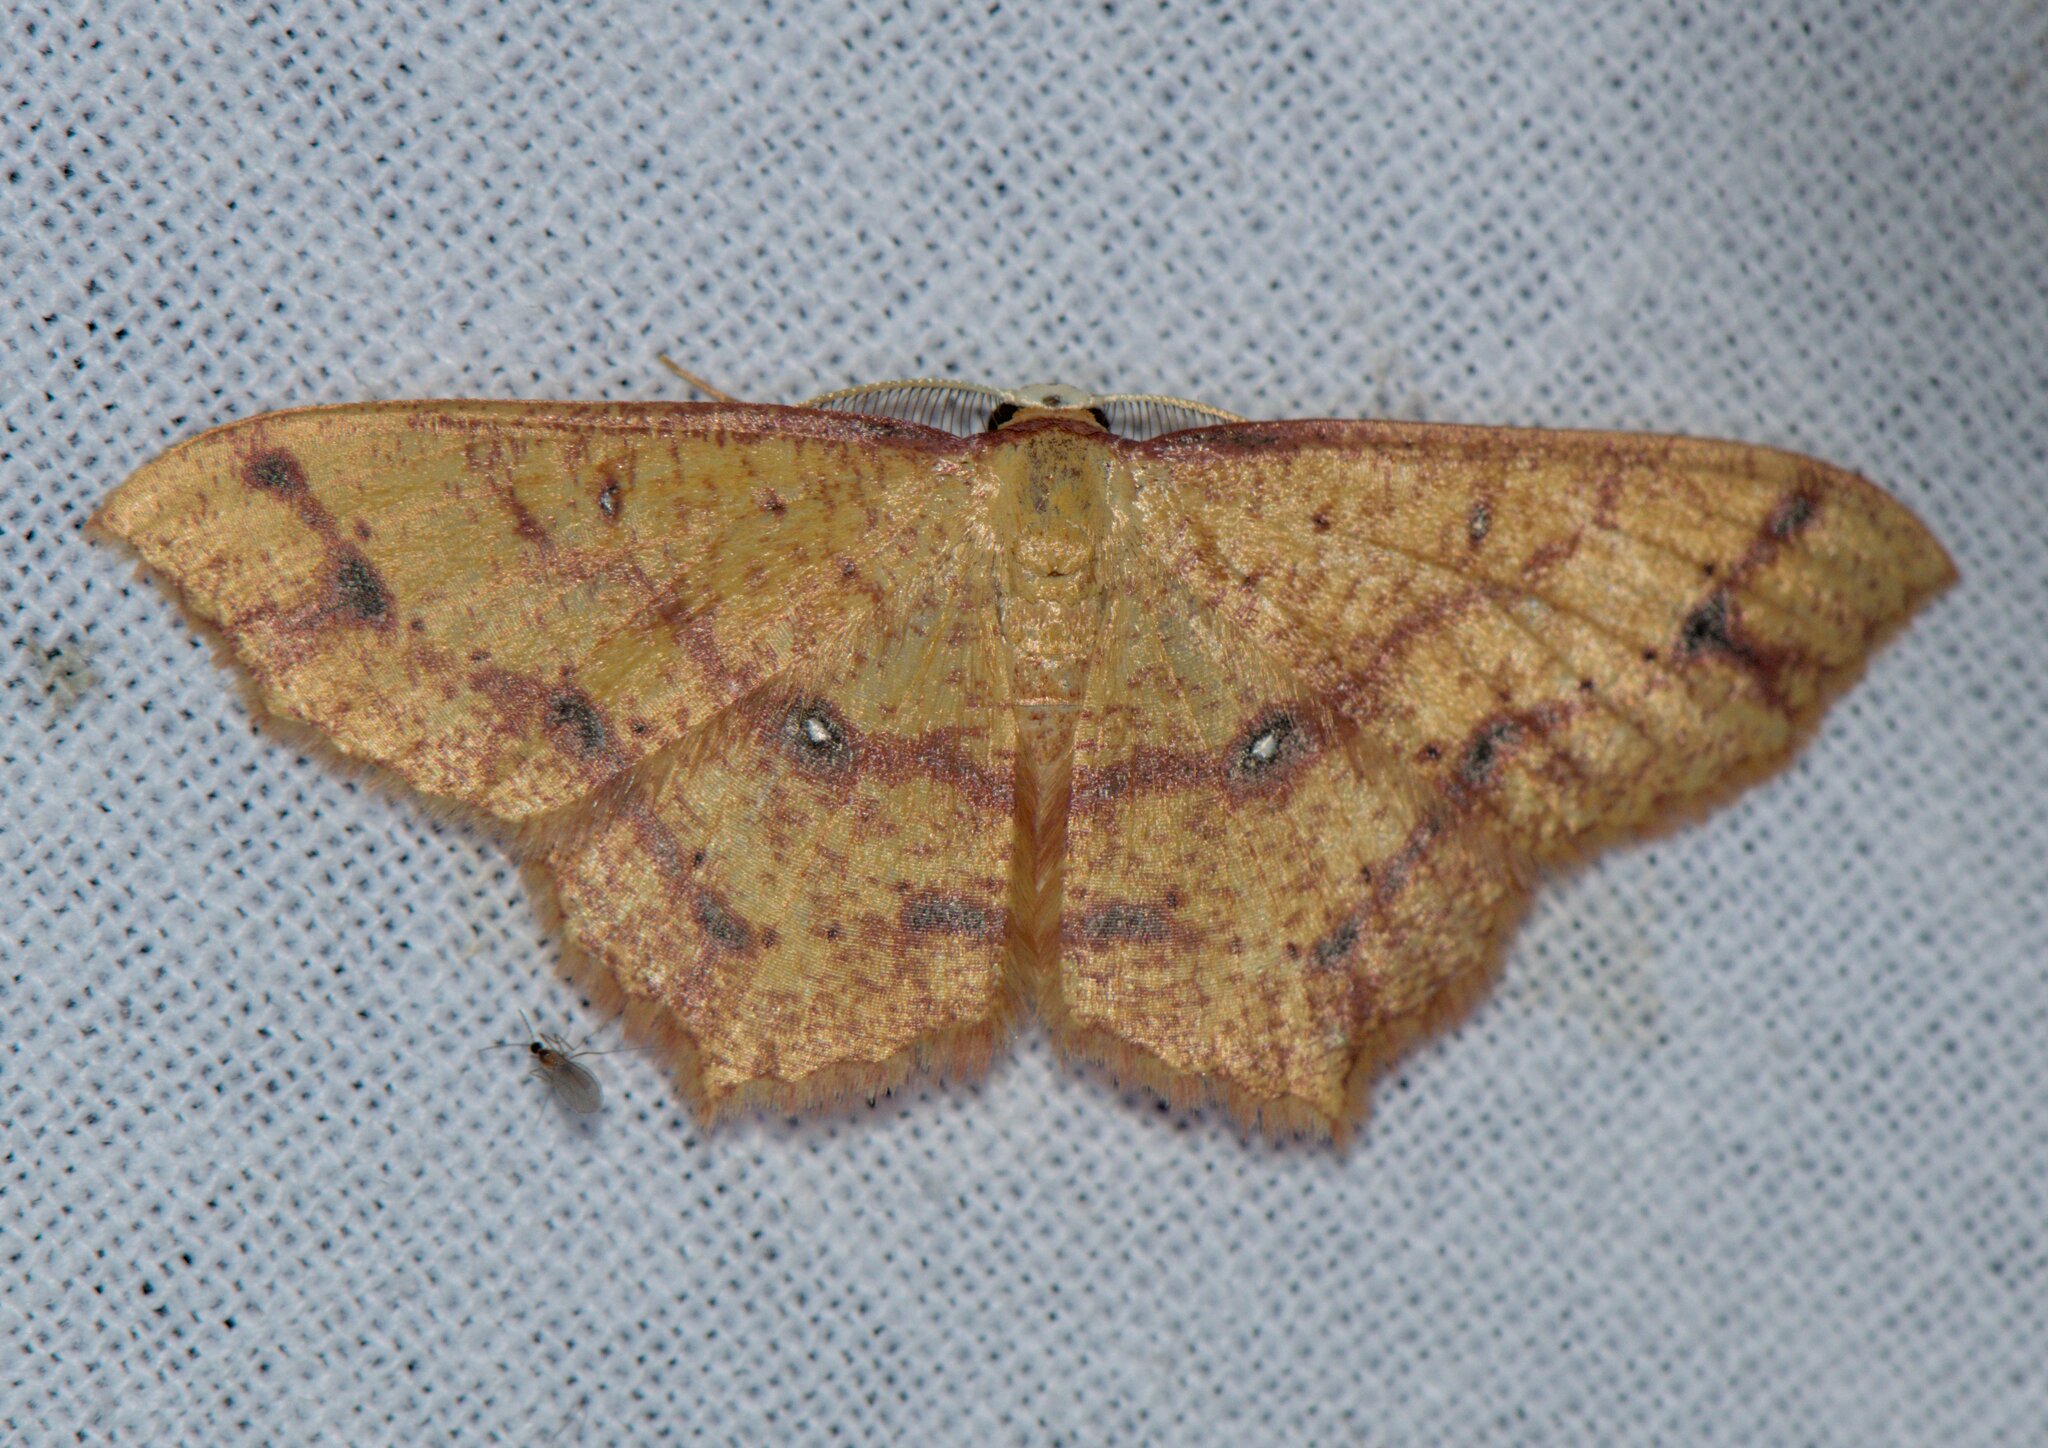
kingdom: Animalia
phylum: Arthropoda
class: Insecta
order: Lepidoptera
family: Geometridae
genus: Synegiodes
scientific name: Synegiodes hyriaria
